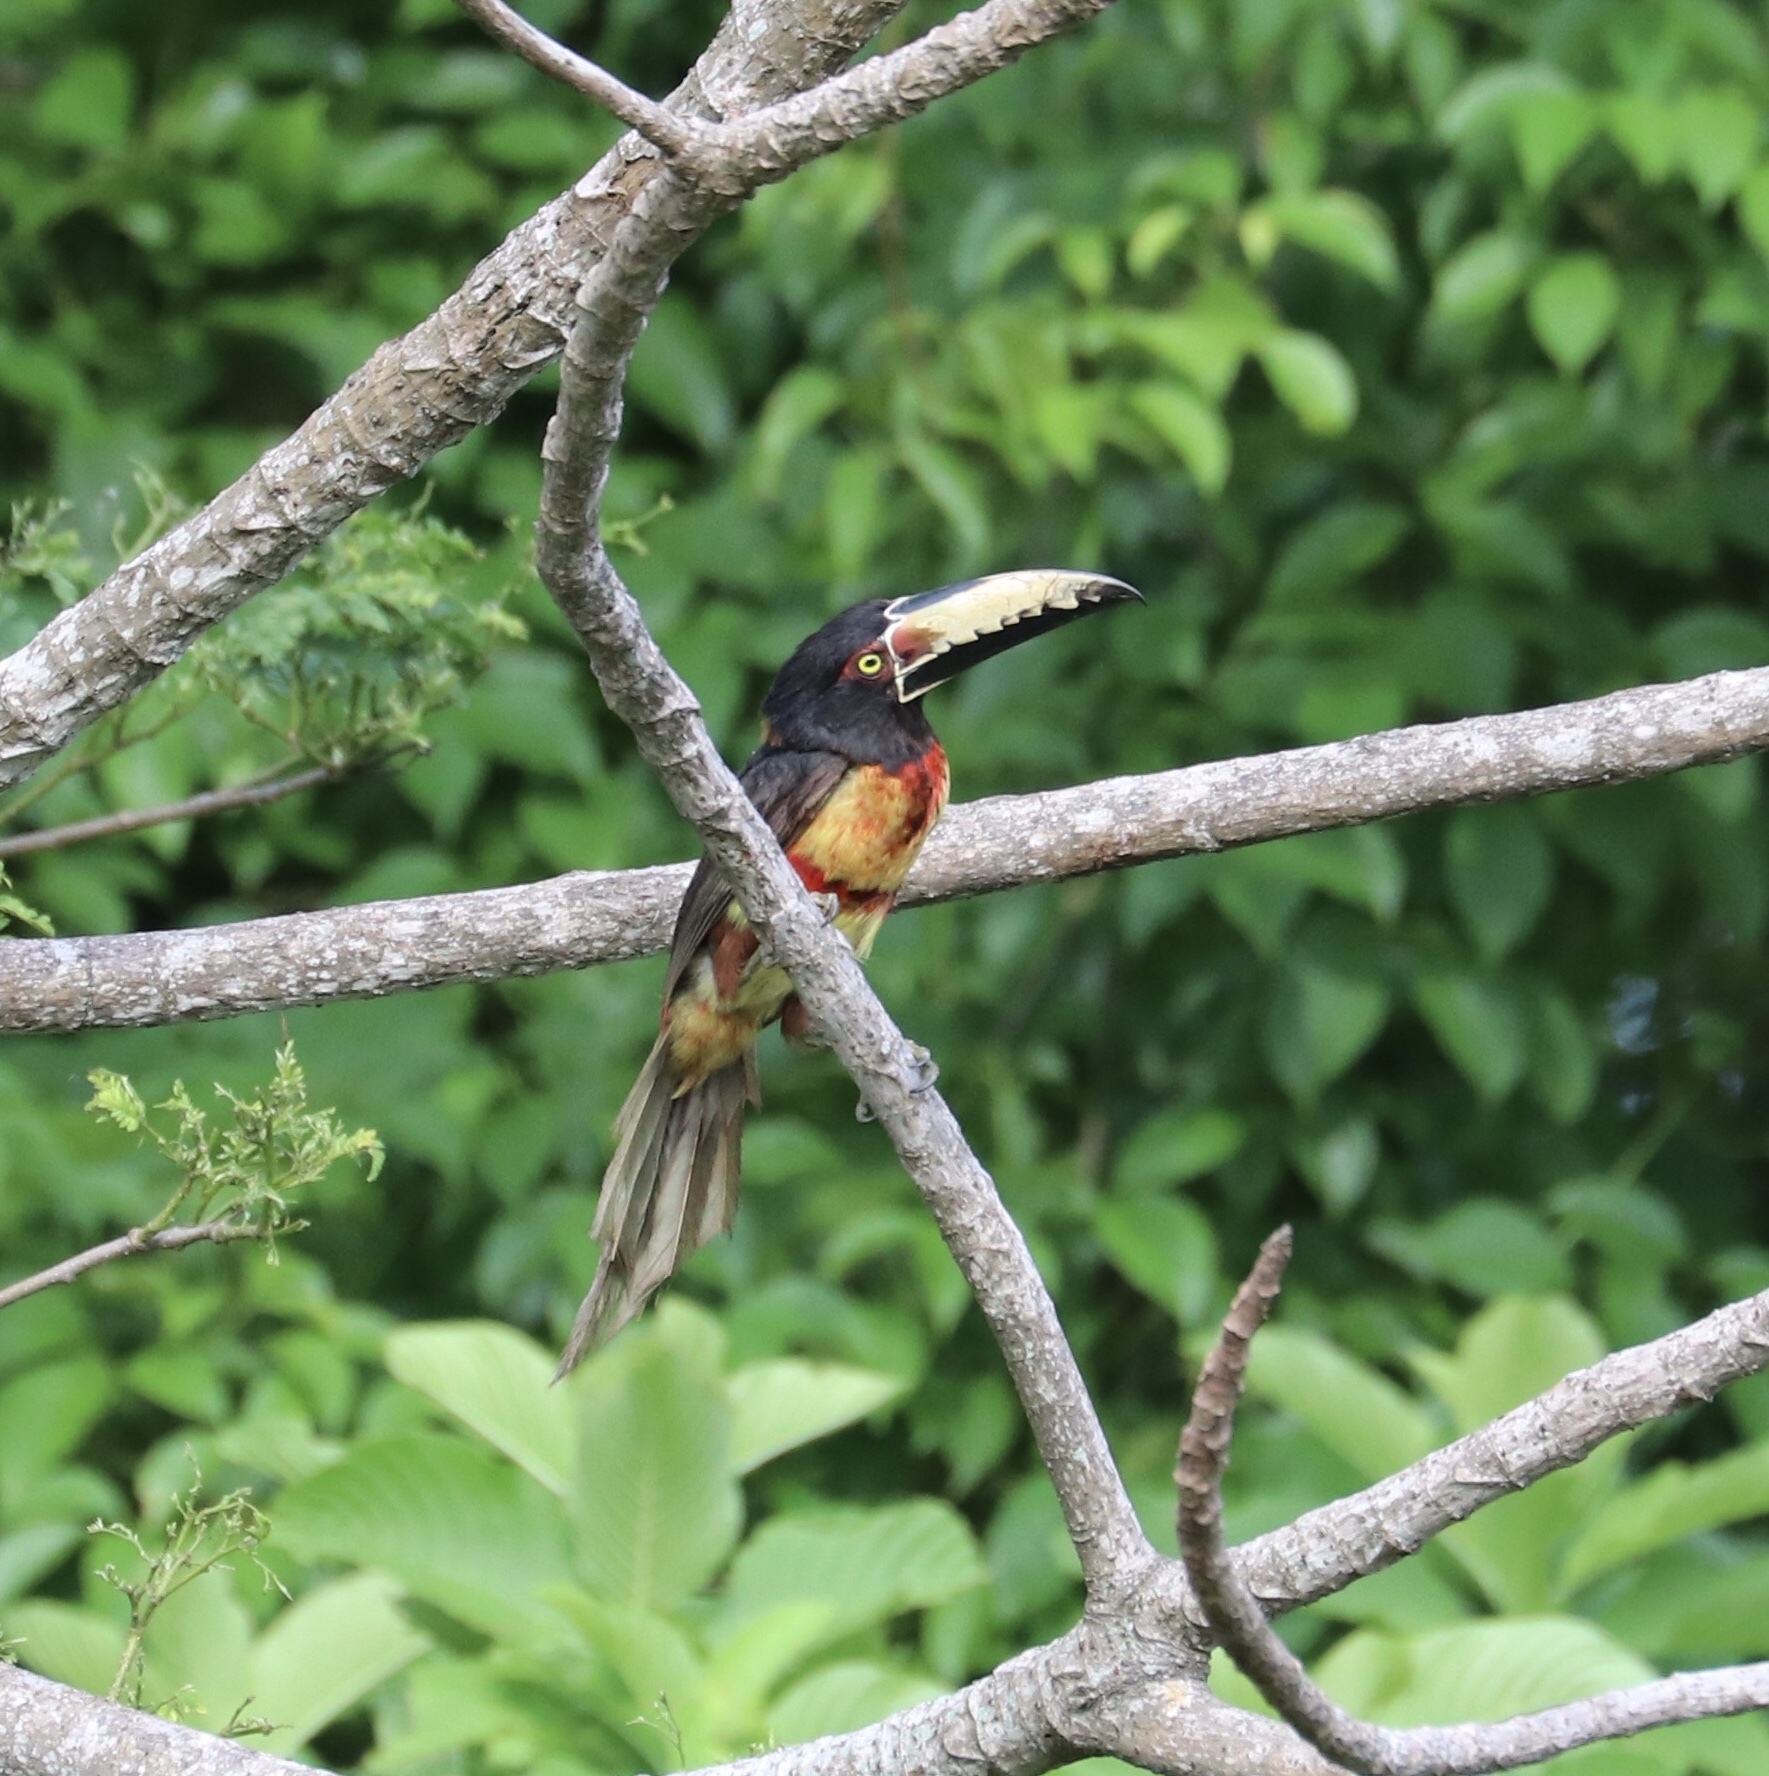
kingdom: Animalia
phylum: Chordata
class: Aves
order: Piciformes
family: Ramphastidae
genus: Pteroglossus
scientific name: Pteroglossus torquatus
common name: Collared aracari
